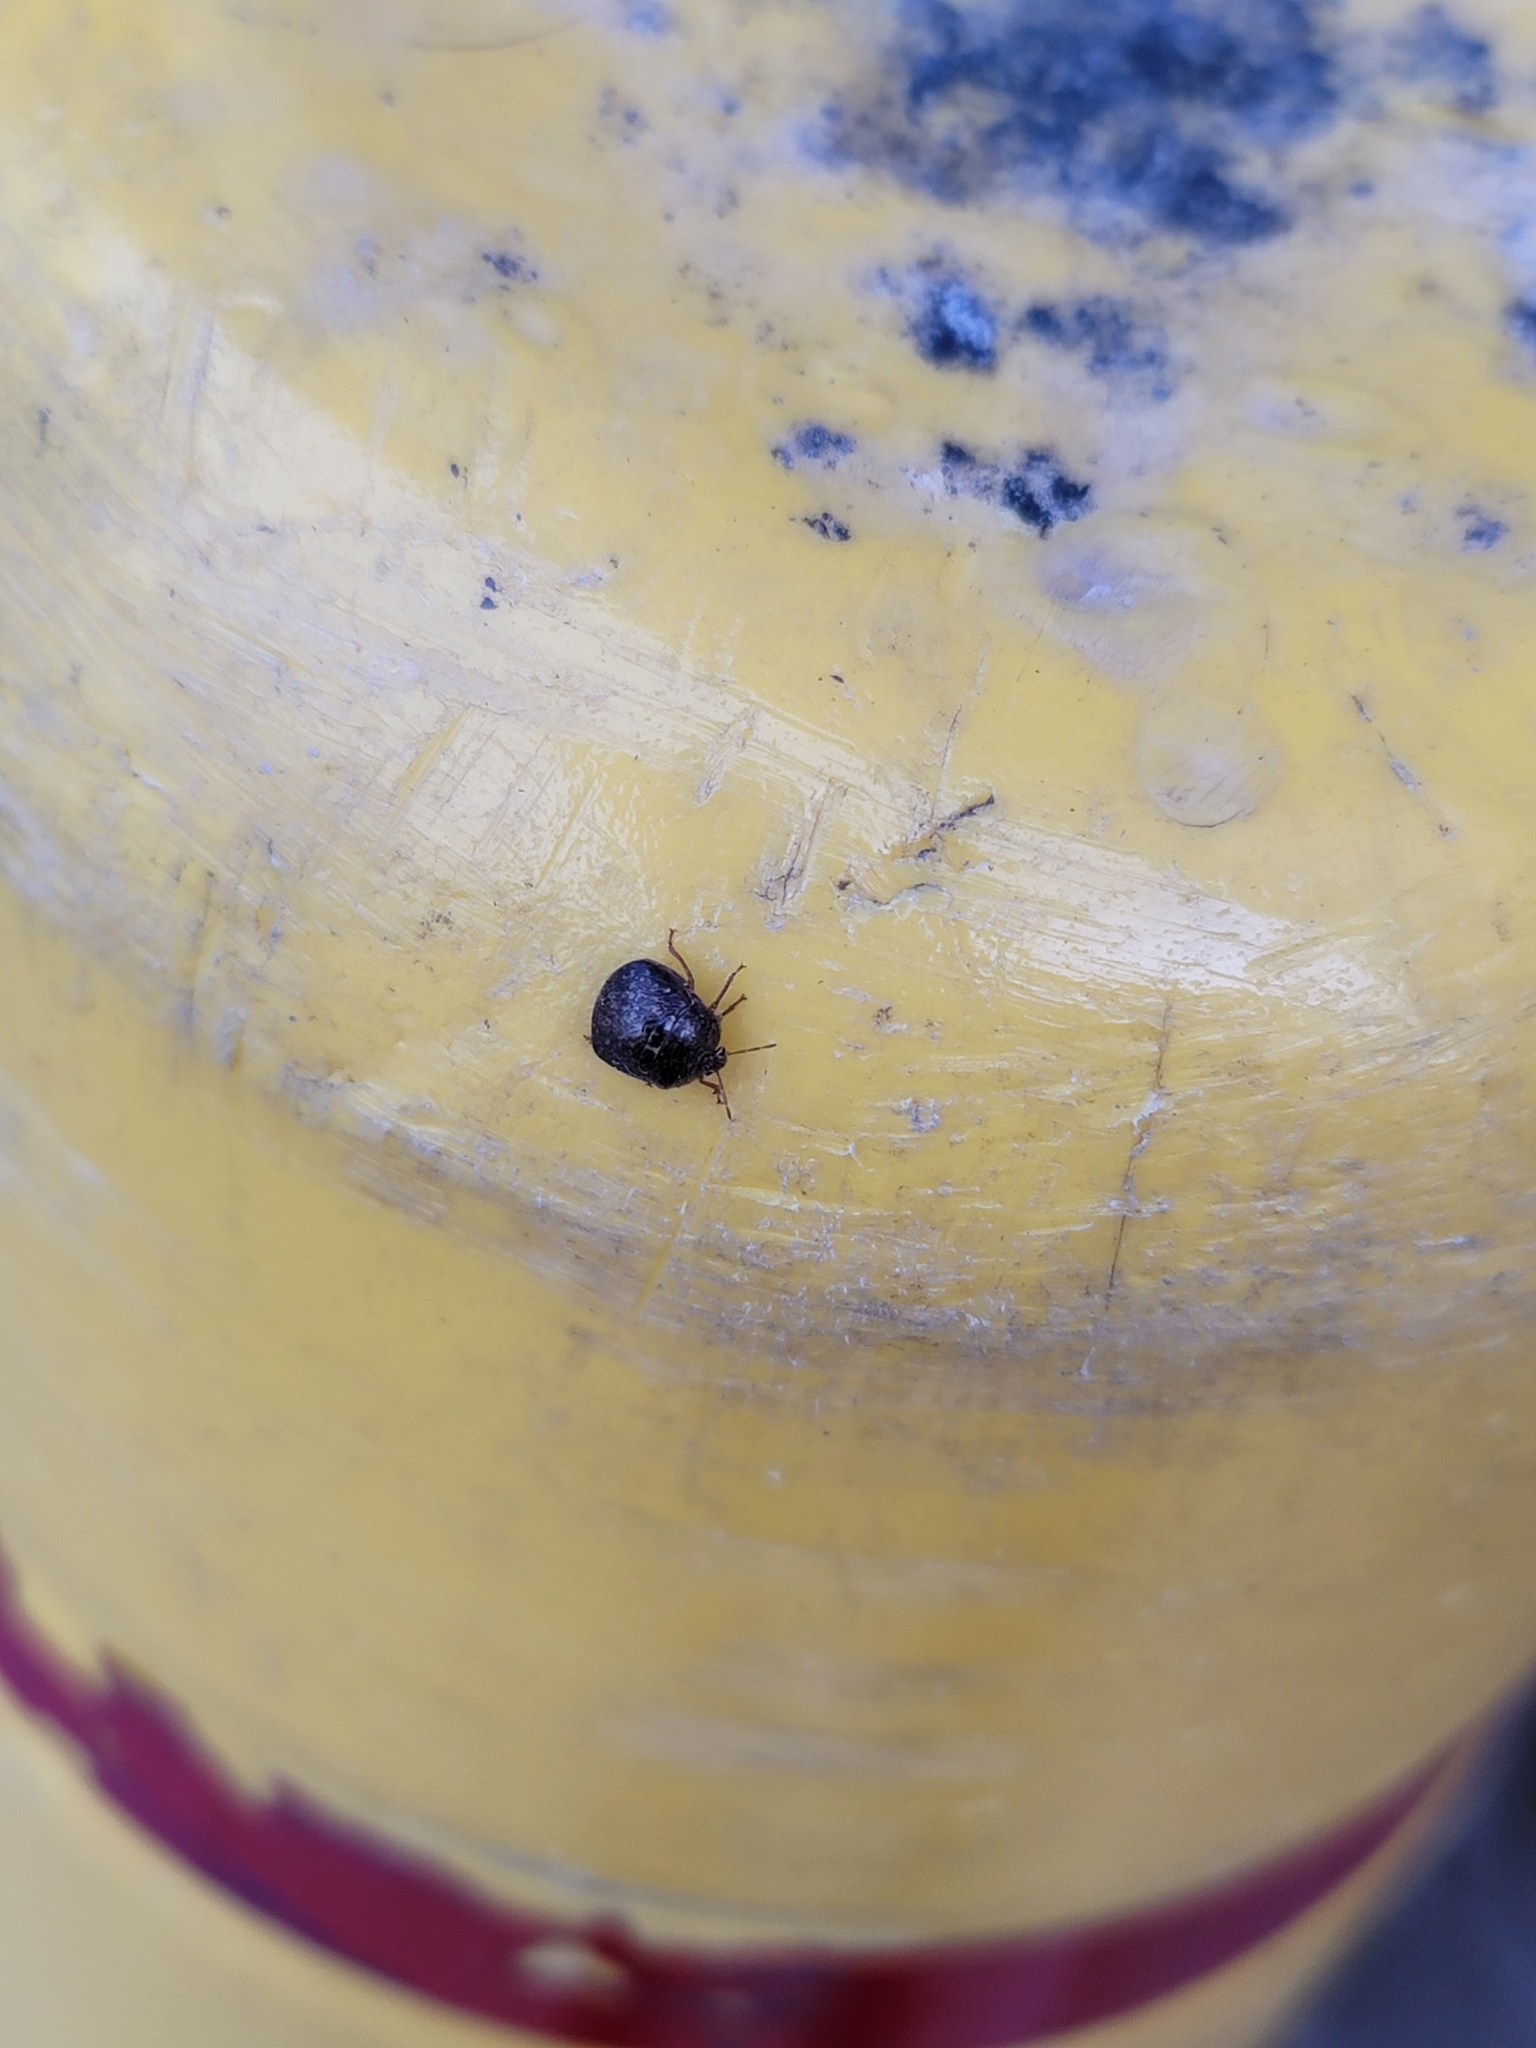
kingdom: Animalia
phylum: Arthropoda
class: Insecta
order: Hemiptera
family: Plataspidae
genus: Megacopta
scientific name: Megacopta cribraria
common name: Bean plataspid
